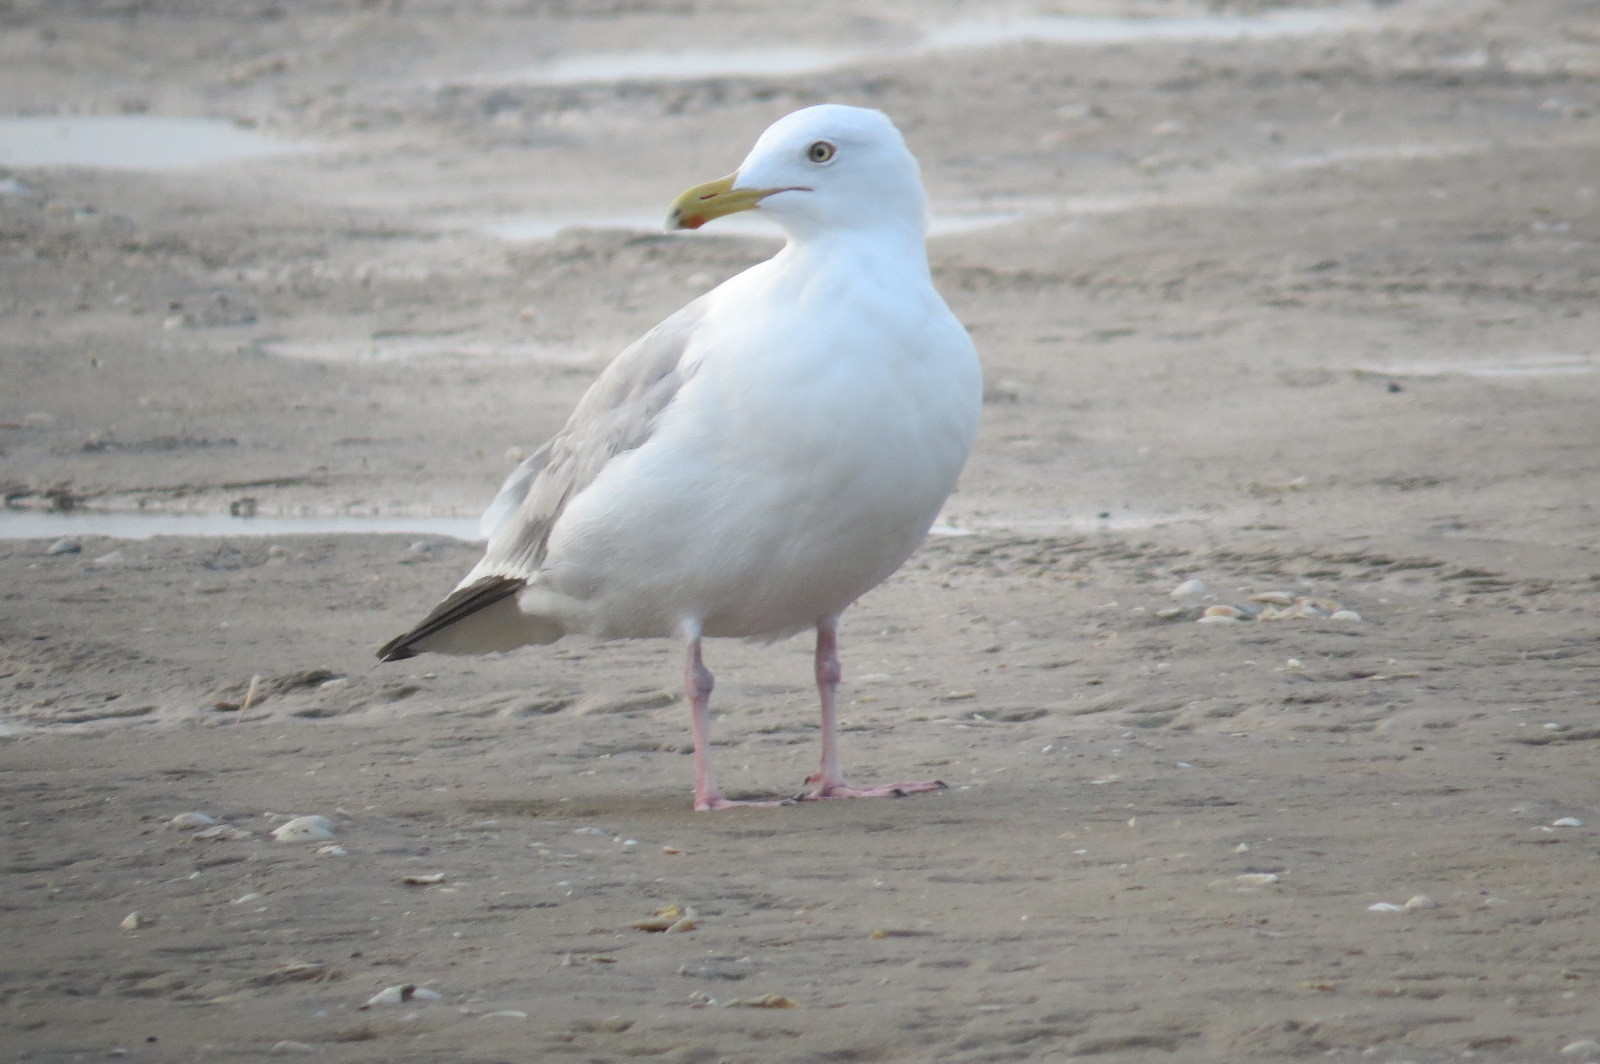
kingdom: Animalia
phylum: Chordata
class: Aves
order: Charadriiformes
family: Laridae
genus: Larus
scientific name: Larus argentatus
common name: Herring gull
